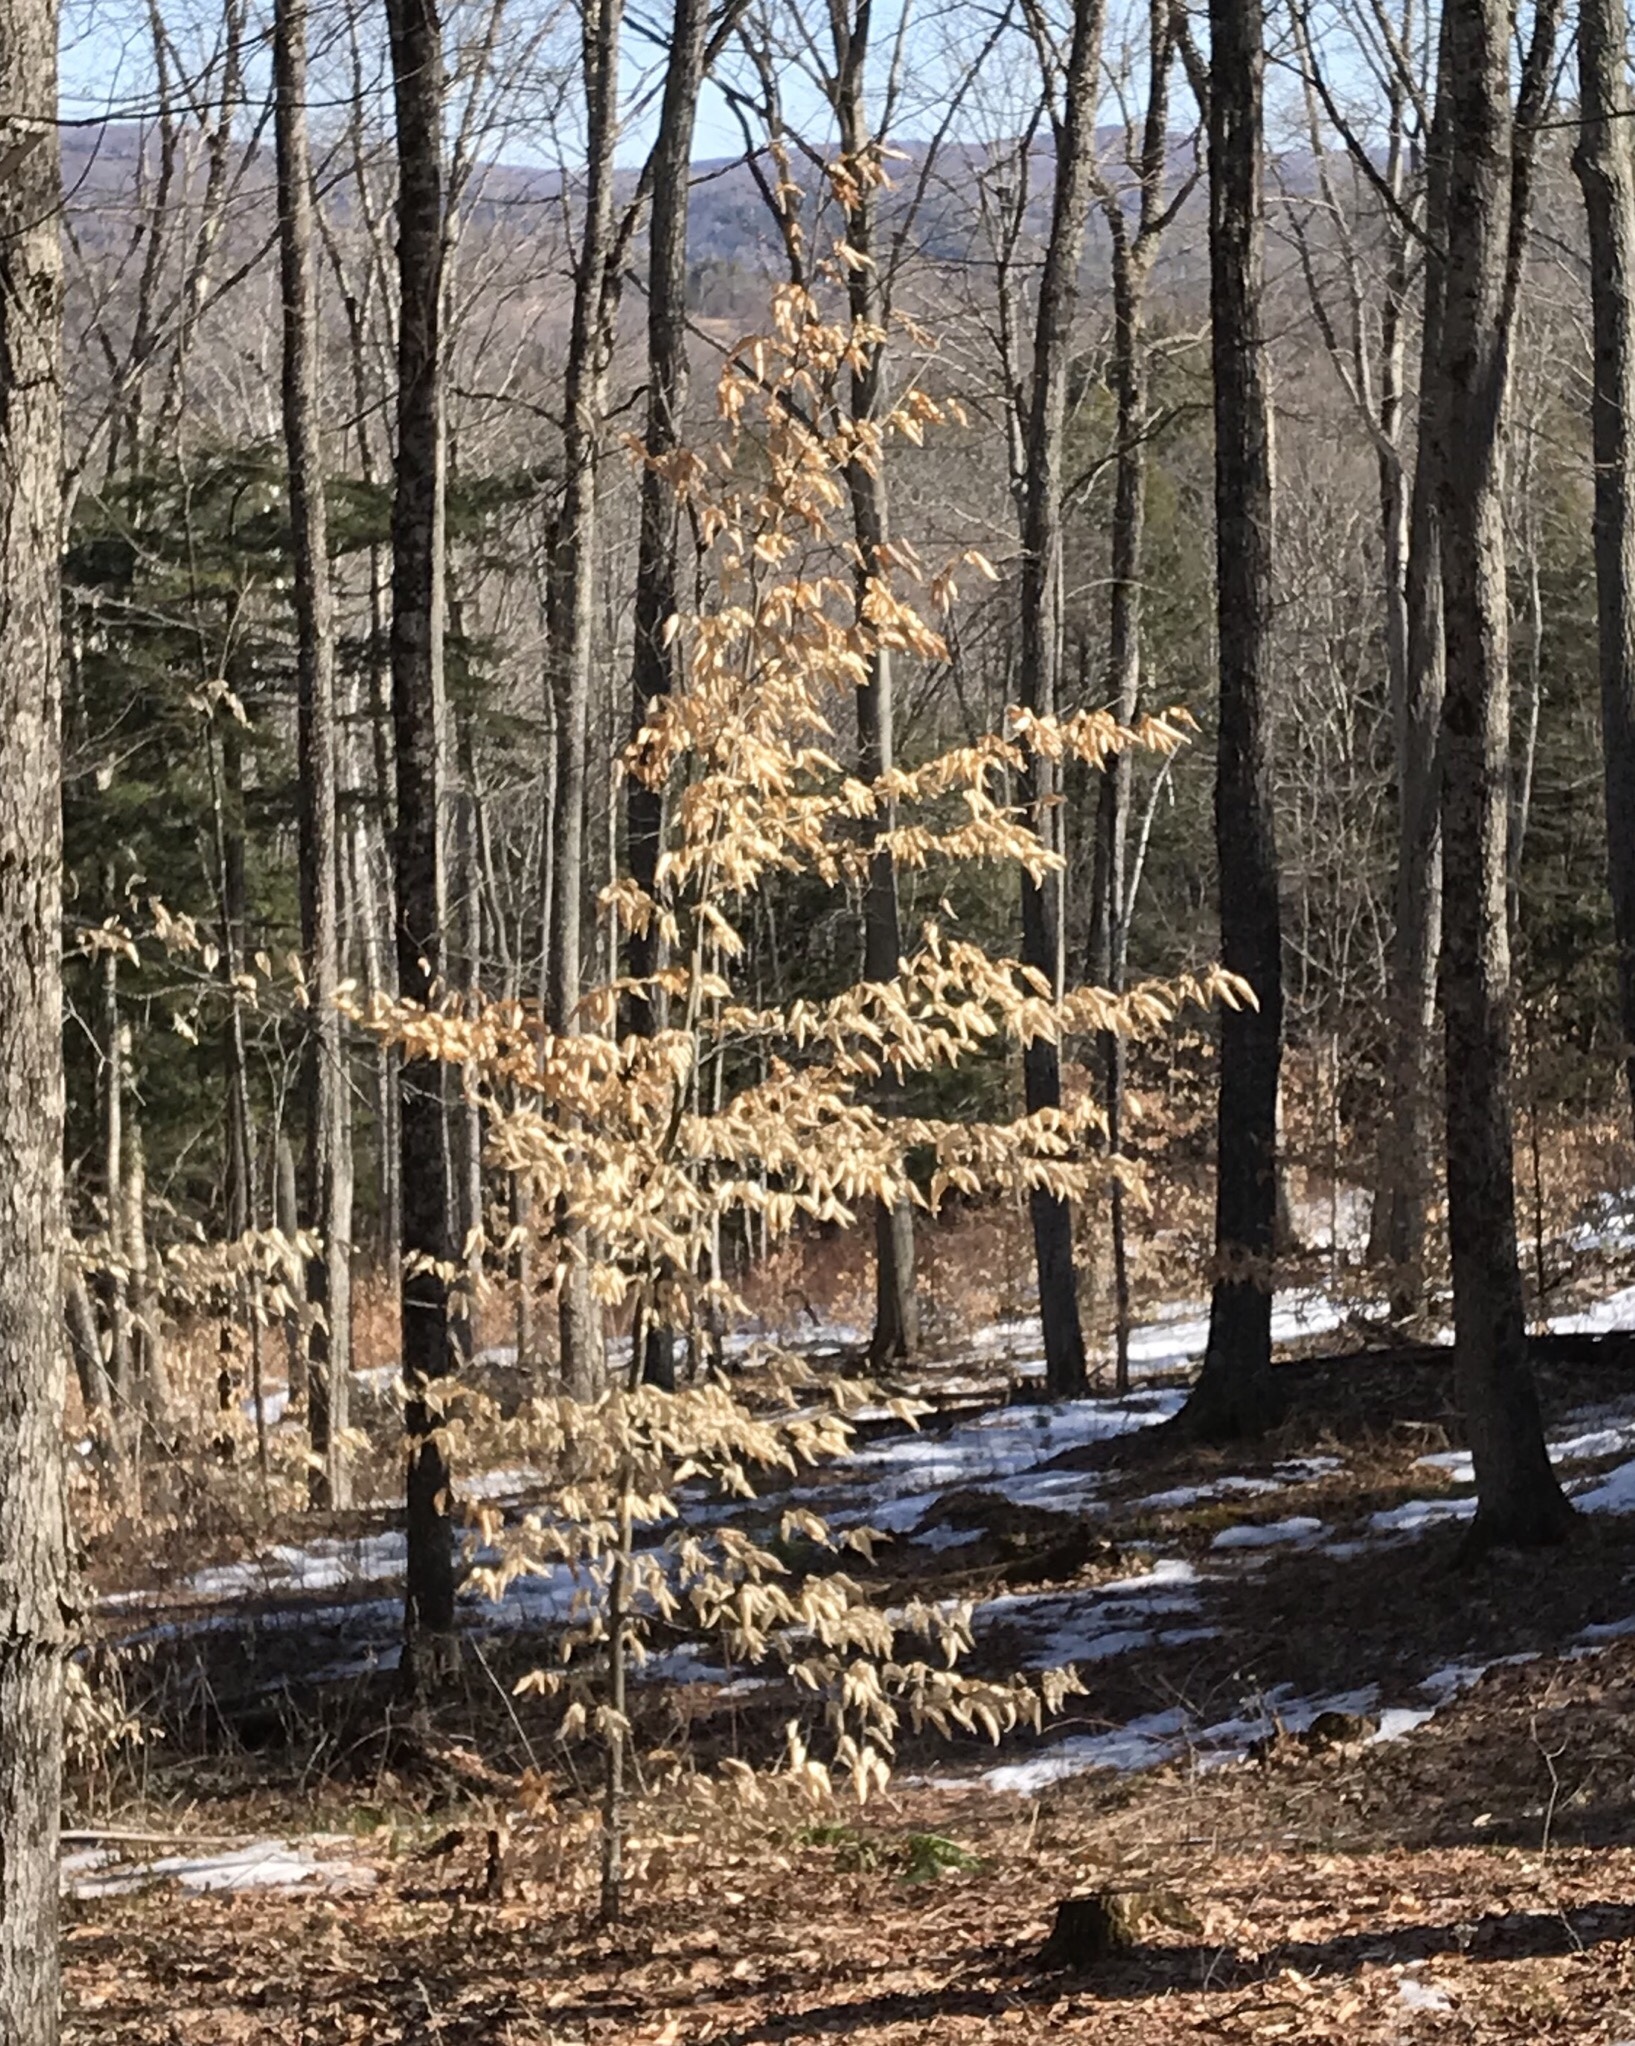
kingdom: Plantae
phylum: Tracheophyta
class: Magnoliopsida
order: Fagales
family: Fagaceae
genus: Fagus
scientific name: Fagus grandifolia
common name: American beech
